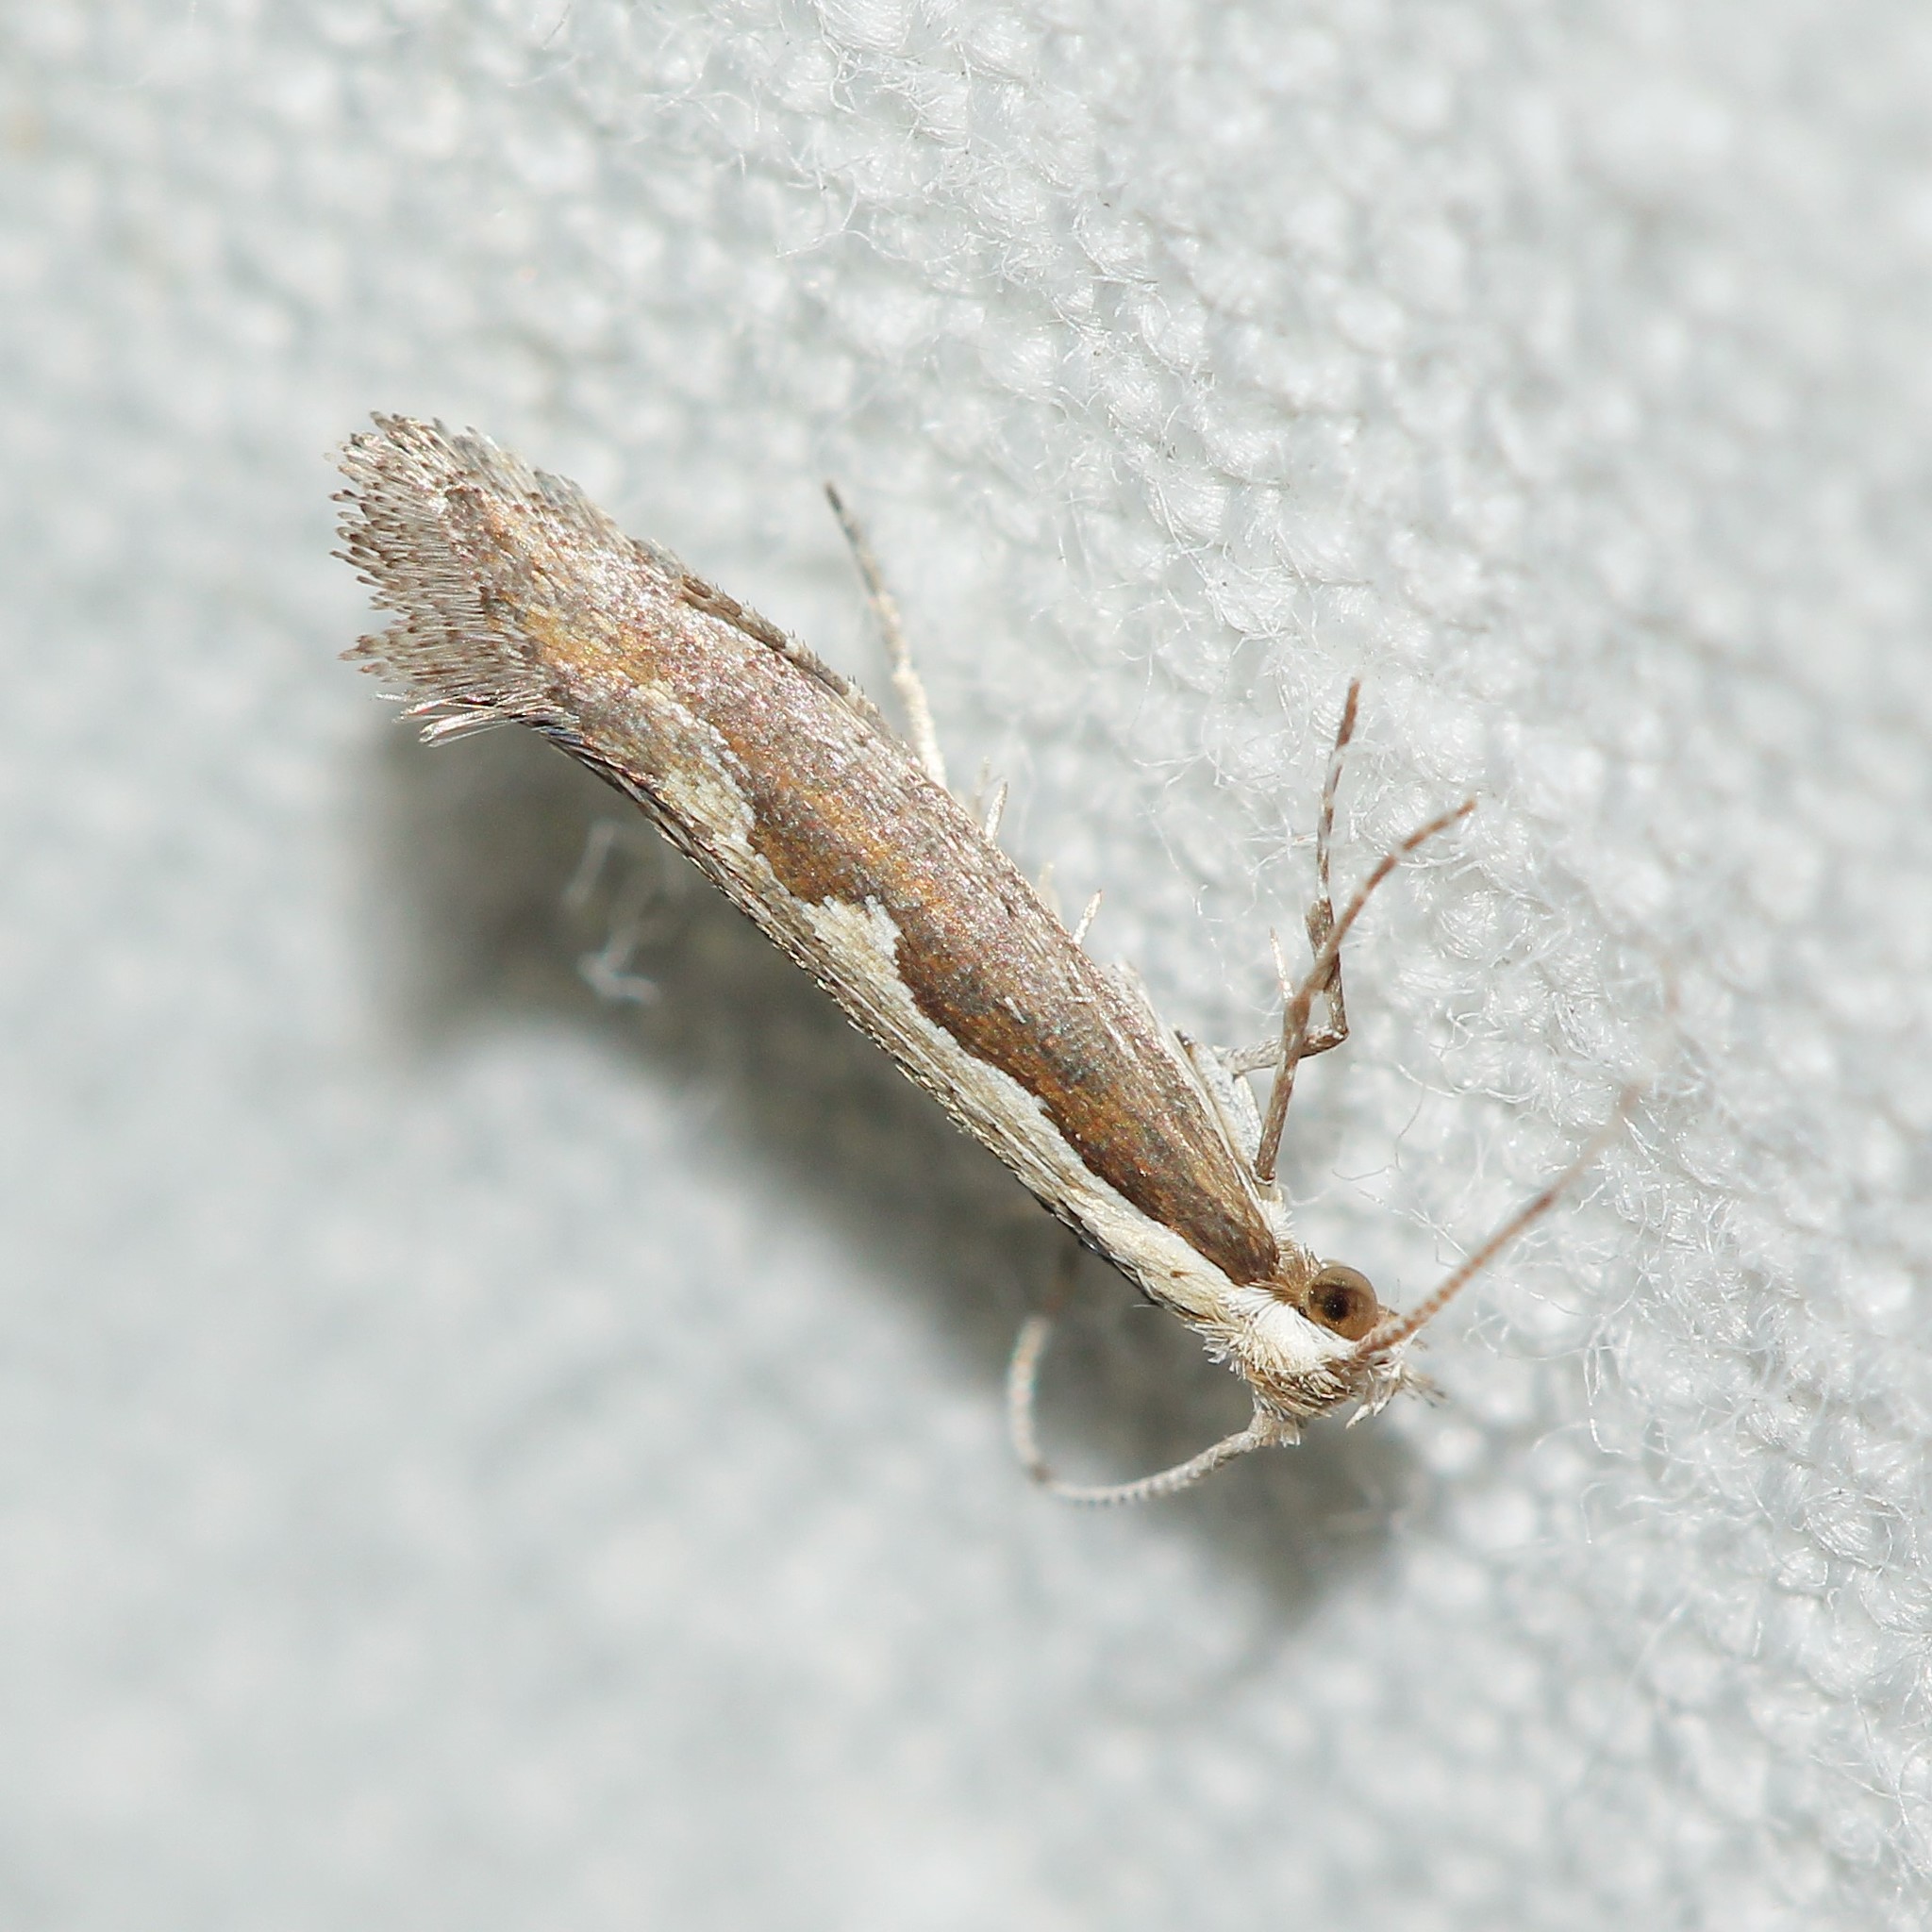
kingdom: Animalia
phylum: Arthropoda
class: Insecta
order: Lepidoptera
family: Plutellidae
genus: Plutella
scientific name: Plutella xylostella
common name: Diamond-back moth
